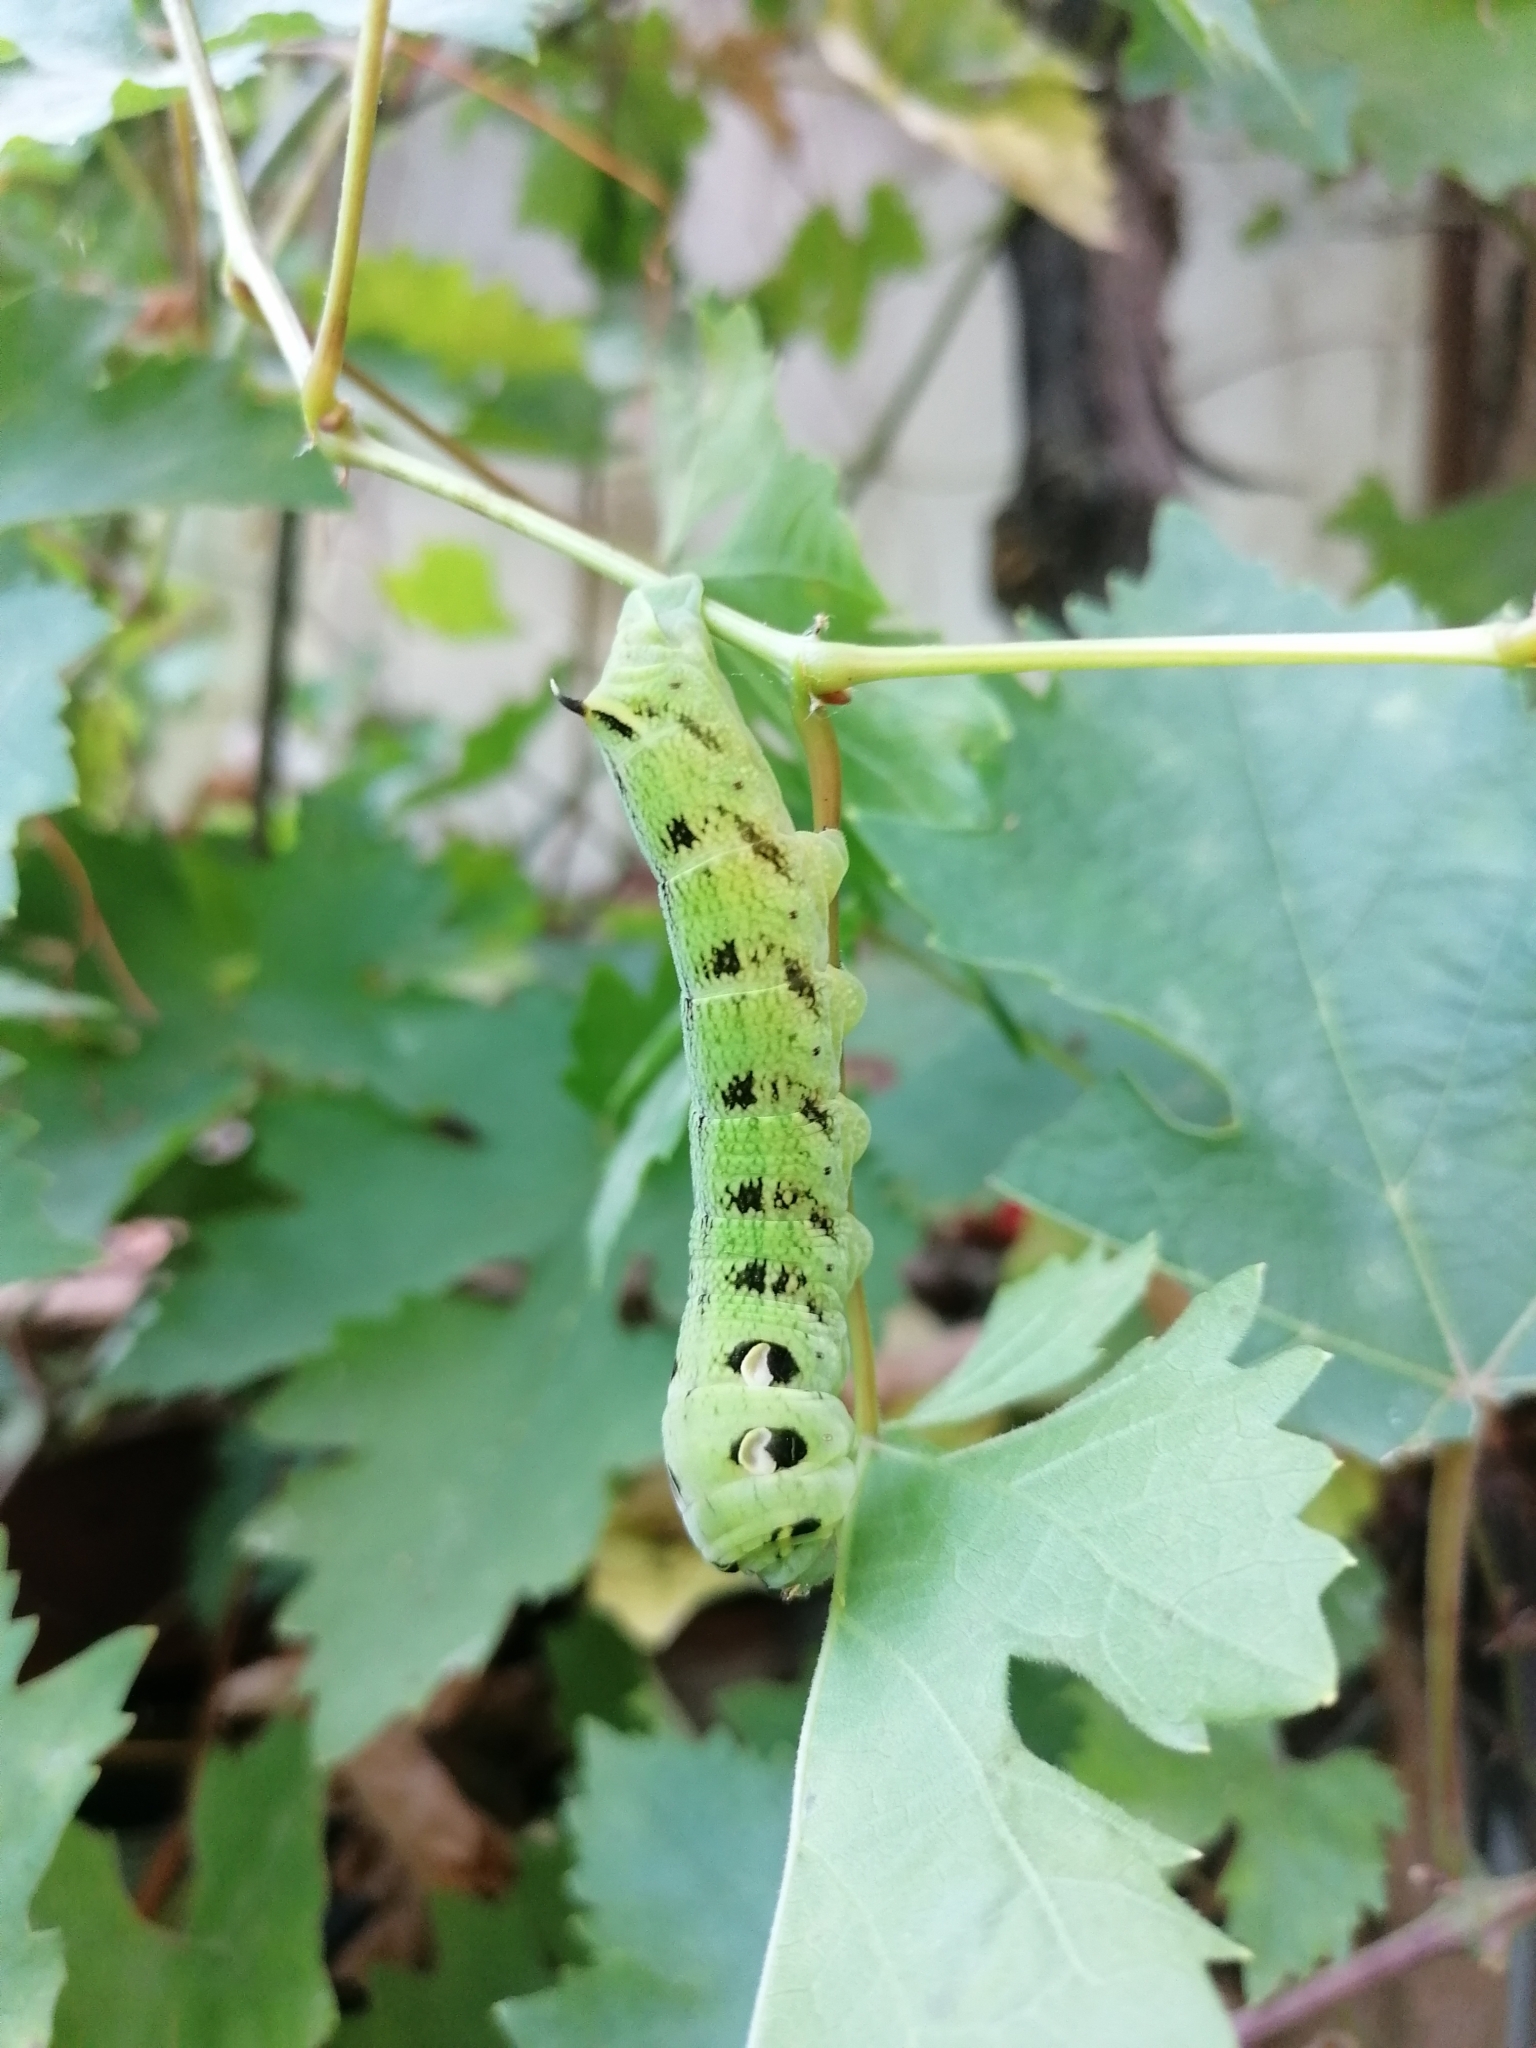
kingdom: Animalia
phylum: Arthropoda
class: Insecta
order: Lepidoptera
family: Sphingidae
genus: Deilephila
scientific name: Deilephila elpenor
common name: Elephant hawk-moth
